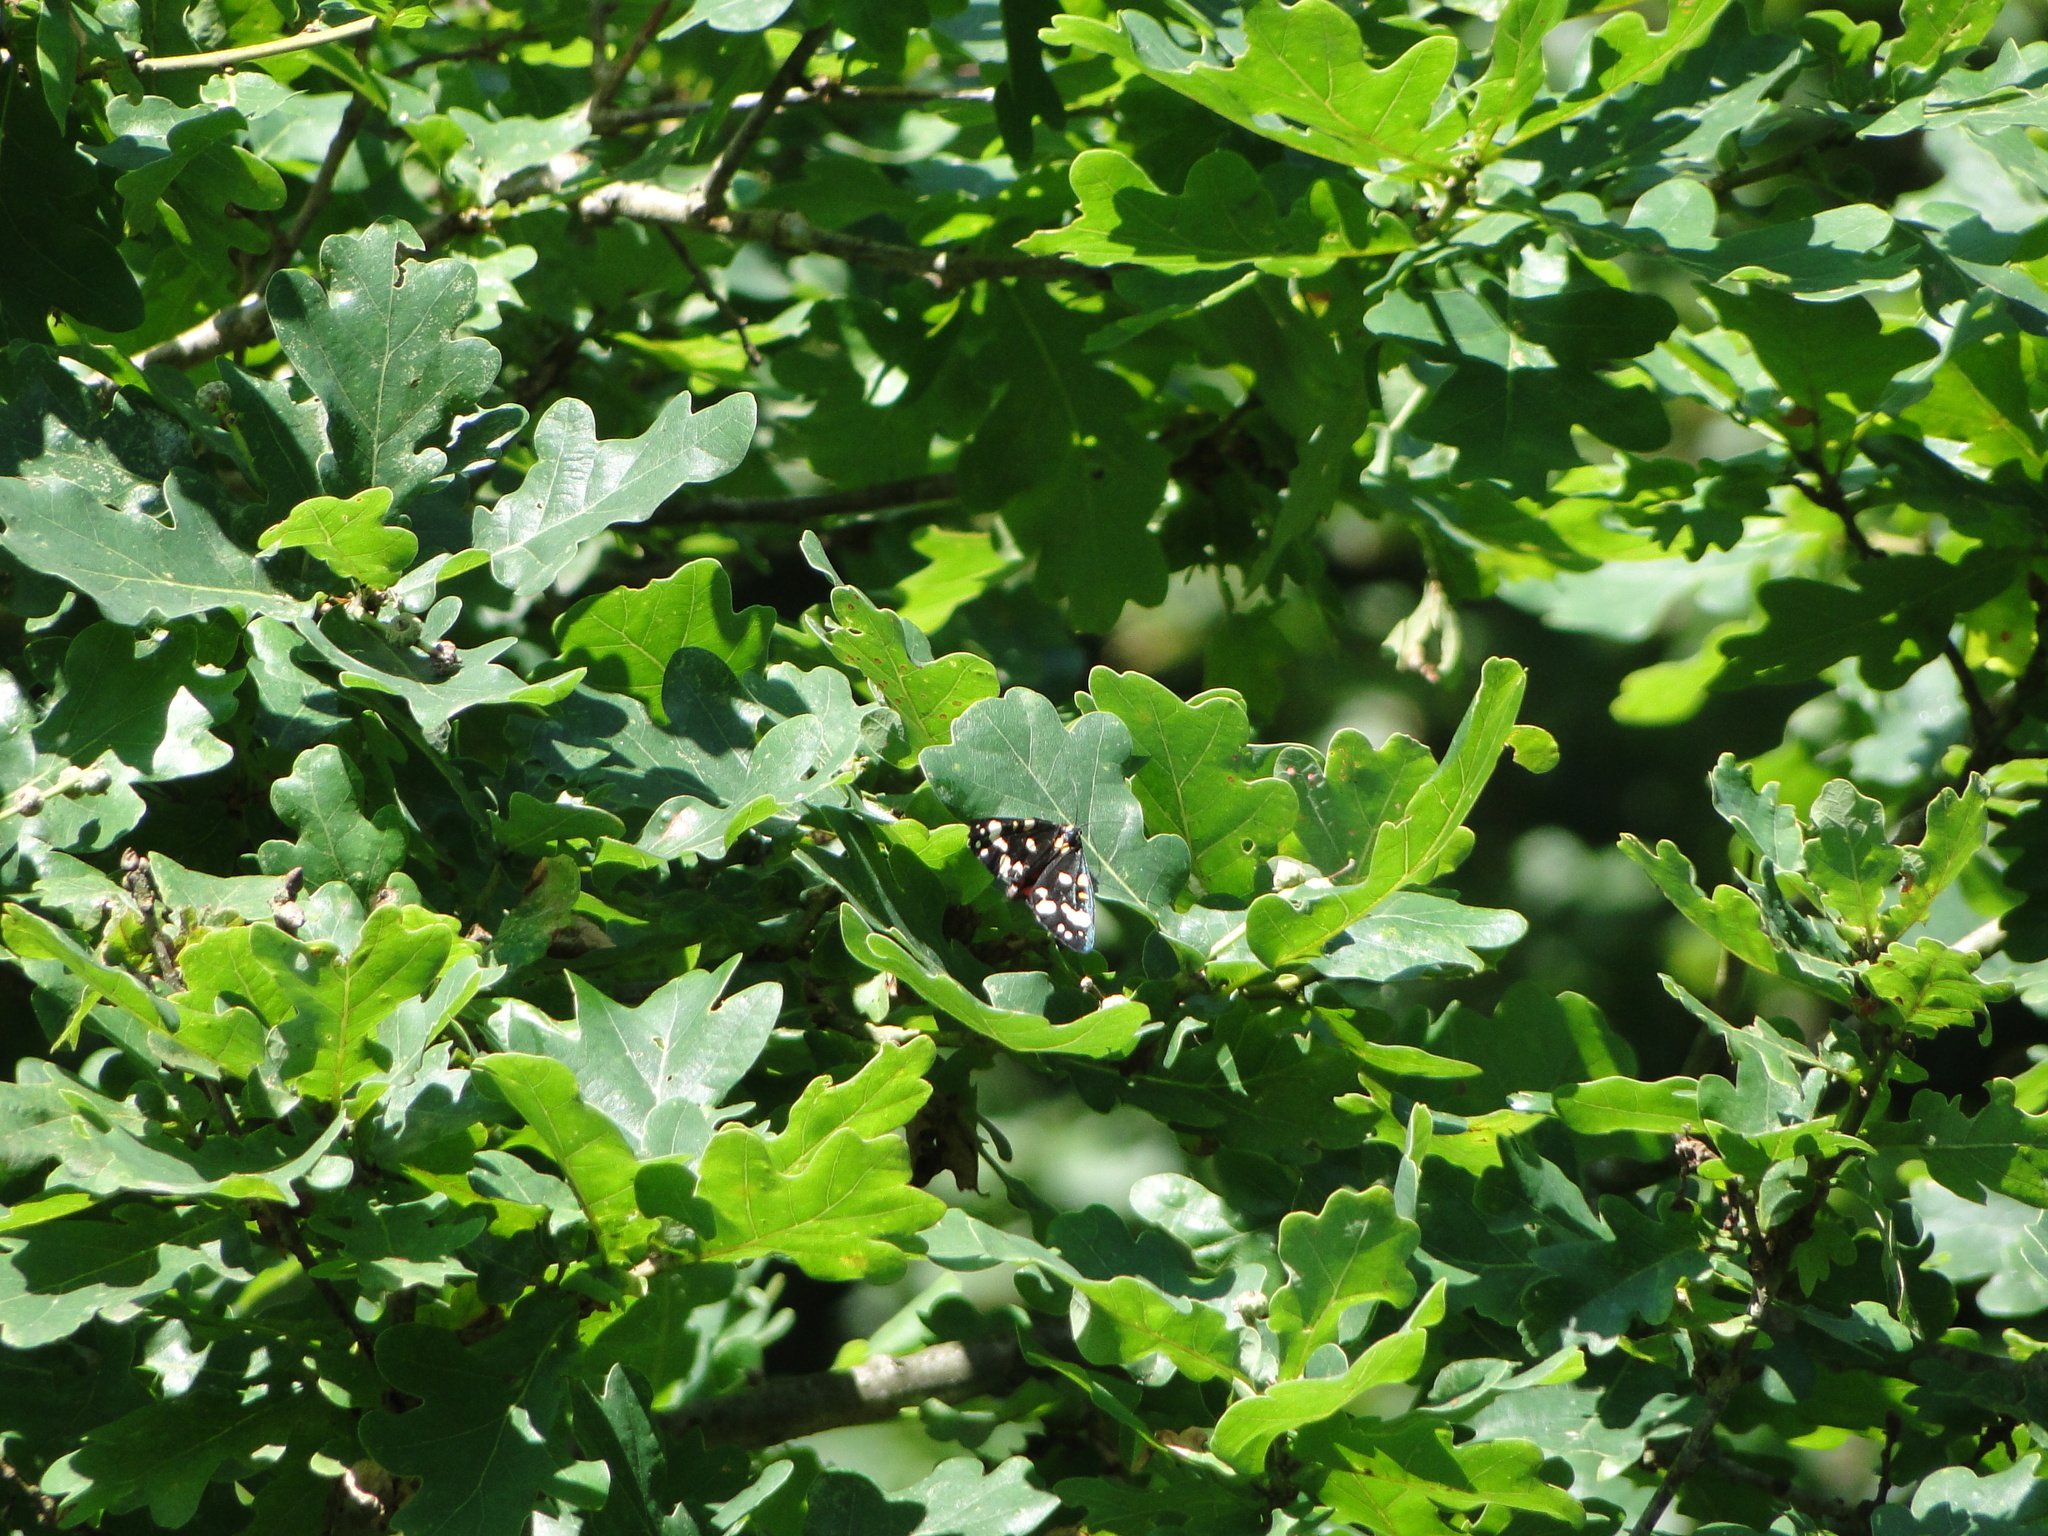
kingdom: Animalia
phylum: Arthropoda
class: Insecta
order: Lepidoptera
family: Erebidae
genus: Callimorpha
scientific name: Callimorpha dominula
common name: Scarlet tiger
